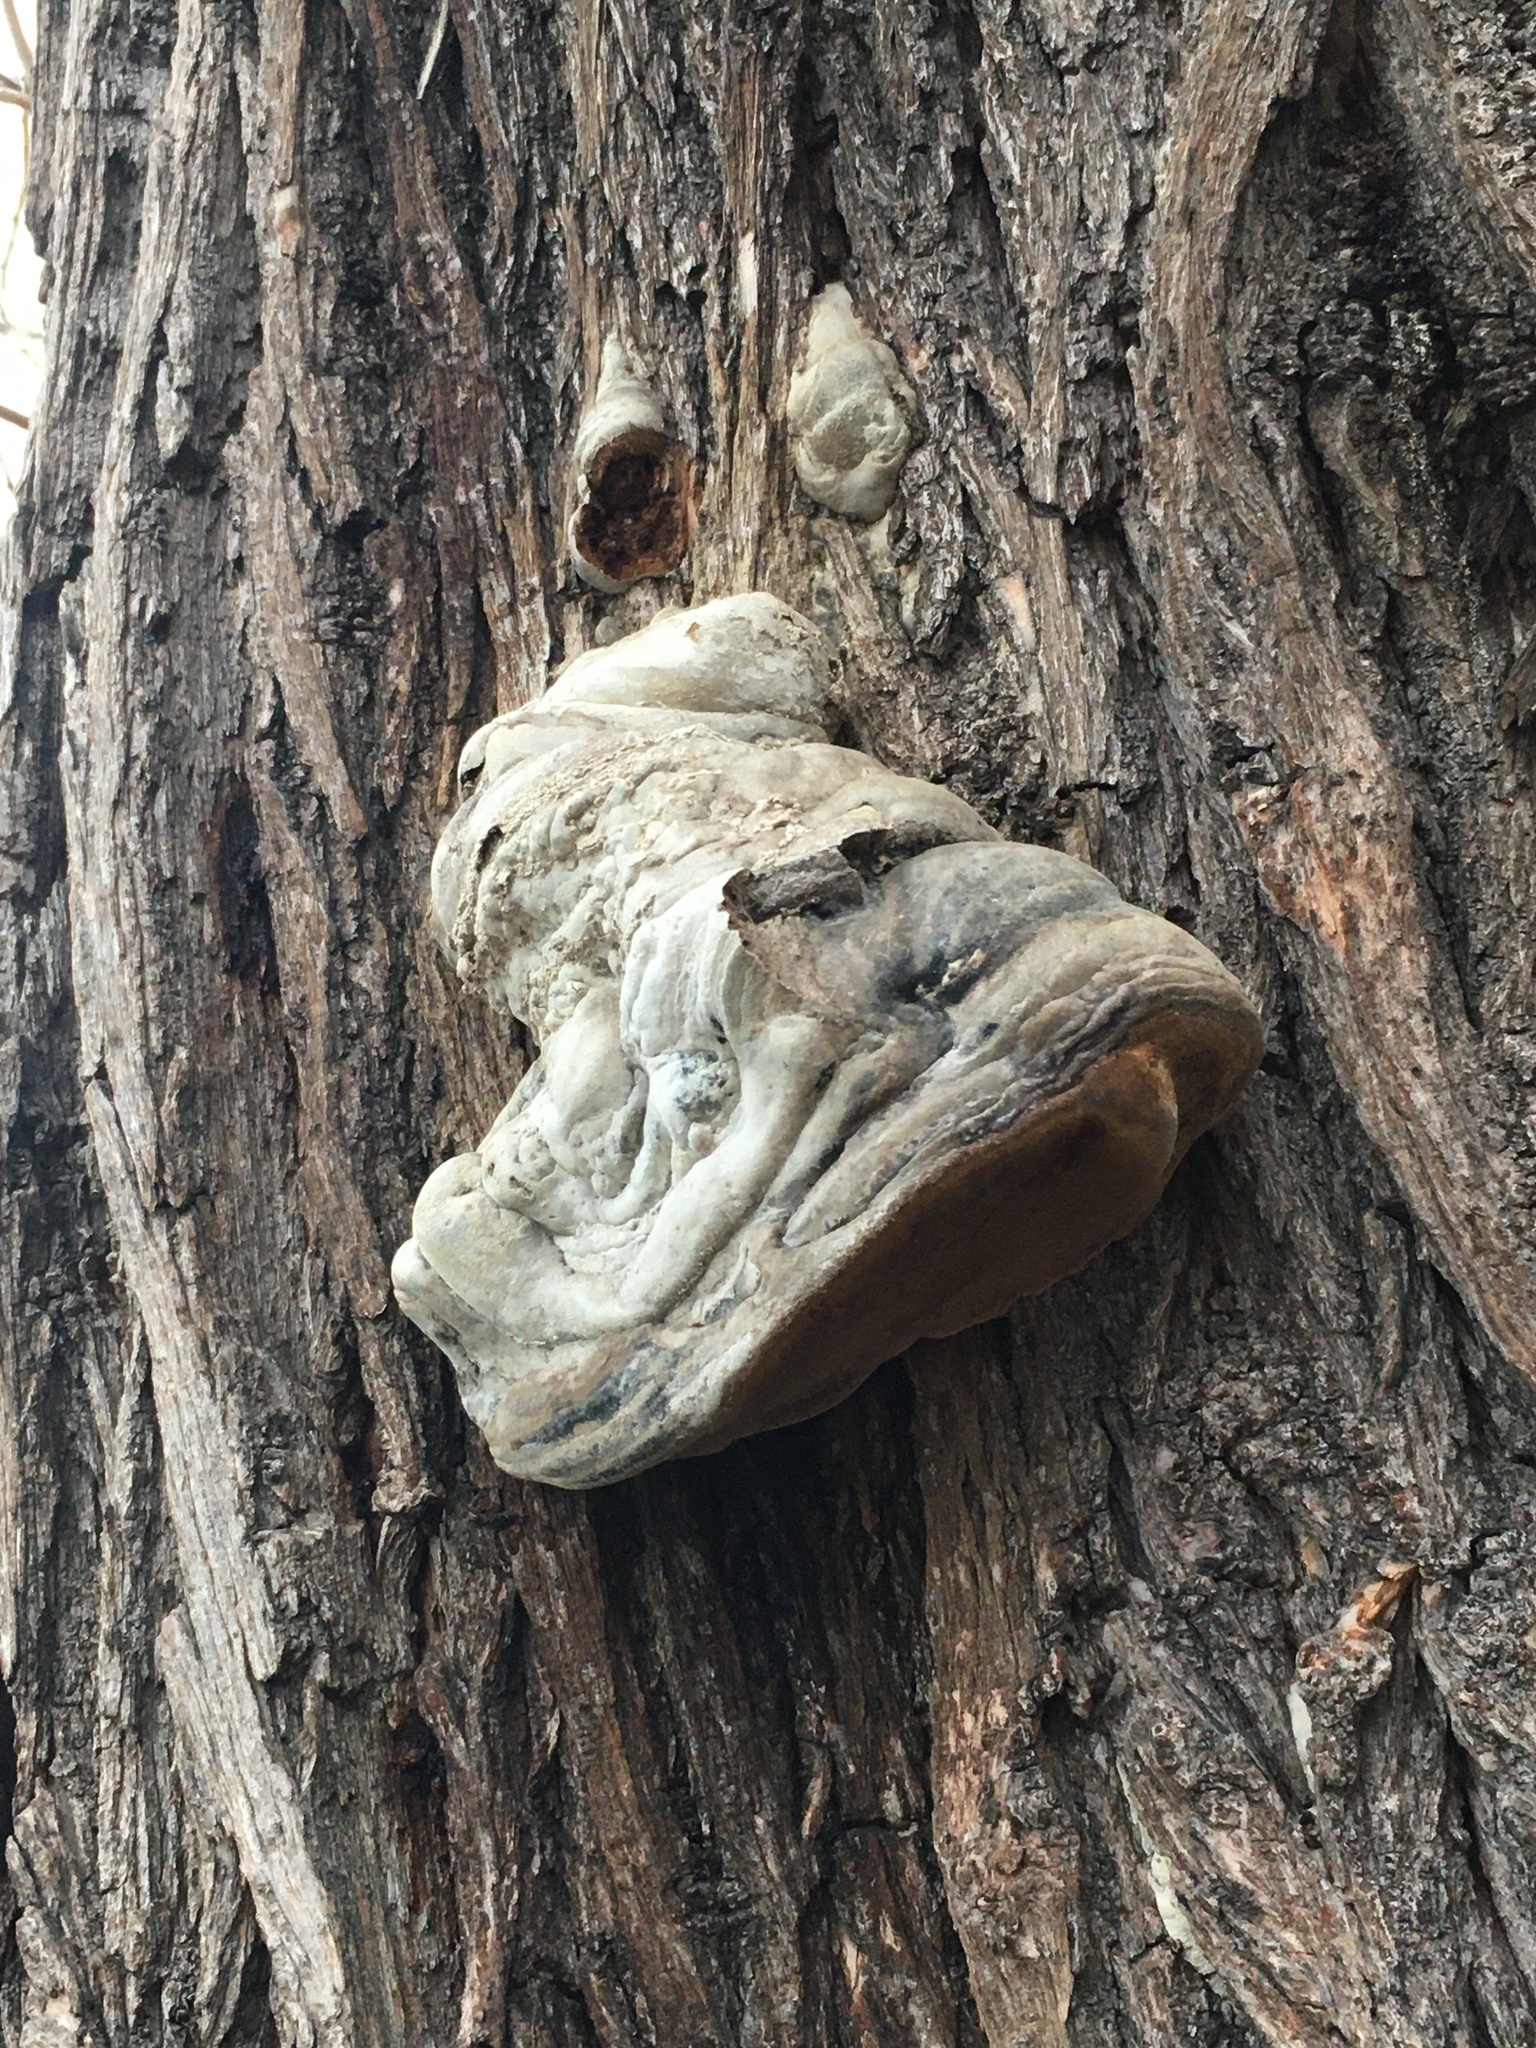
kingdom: Fungi
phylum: Basidiomycota
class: Agaricomycetes
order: Hymenochaetales
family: Hymenochaetaceae
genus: Phellinus
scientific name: Phellinus igniarius
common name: Willow bracket
